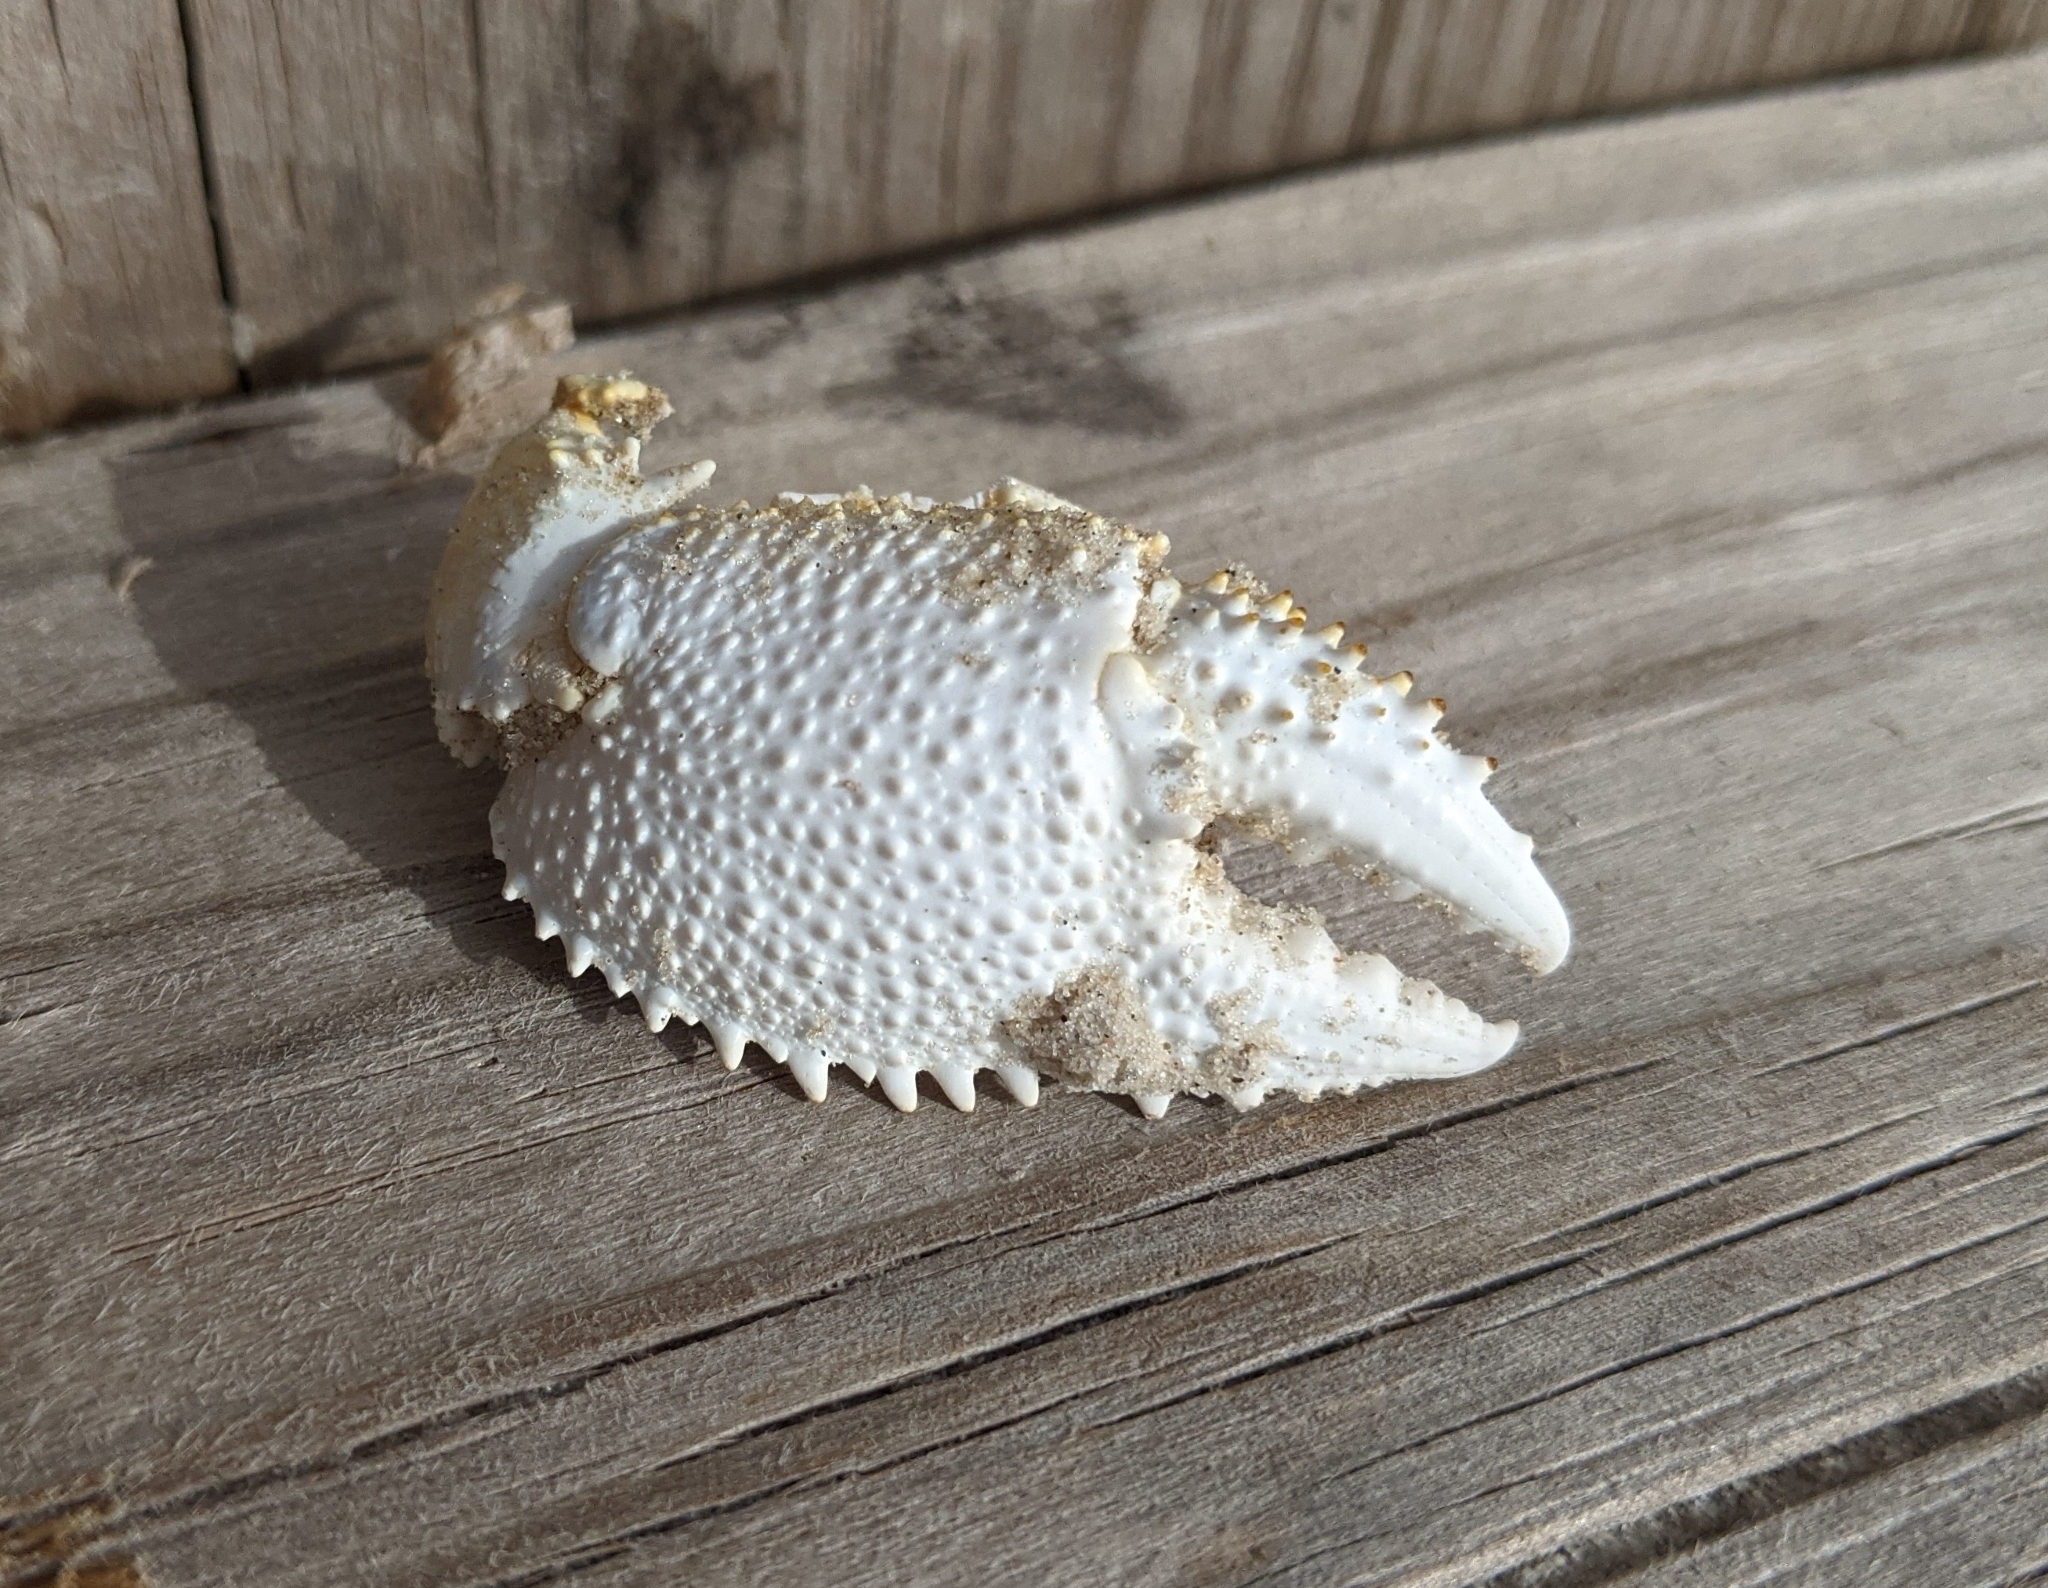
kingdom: Animalia
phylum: Arthropoda
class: Malacostraca
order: Decapoda
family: Ocypodidae
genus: Ocypode
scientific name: Ocypode quadrata
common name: Ghost crab
